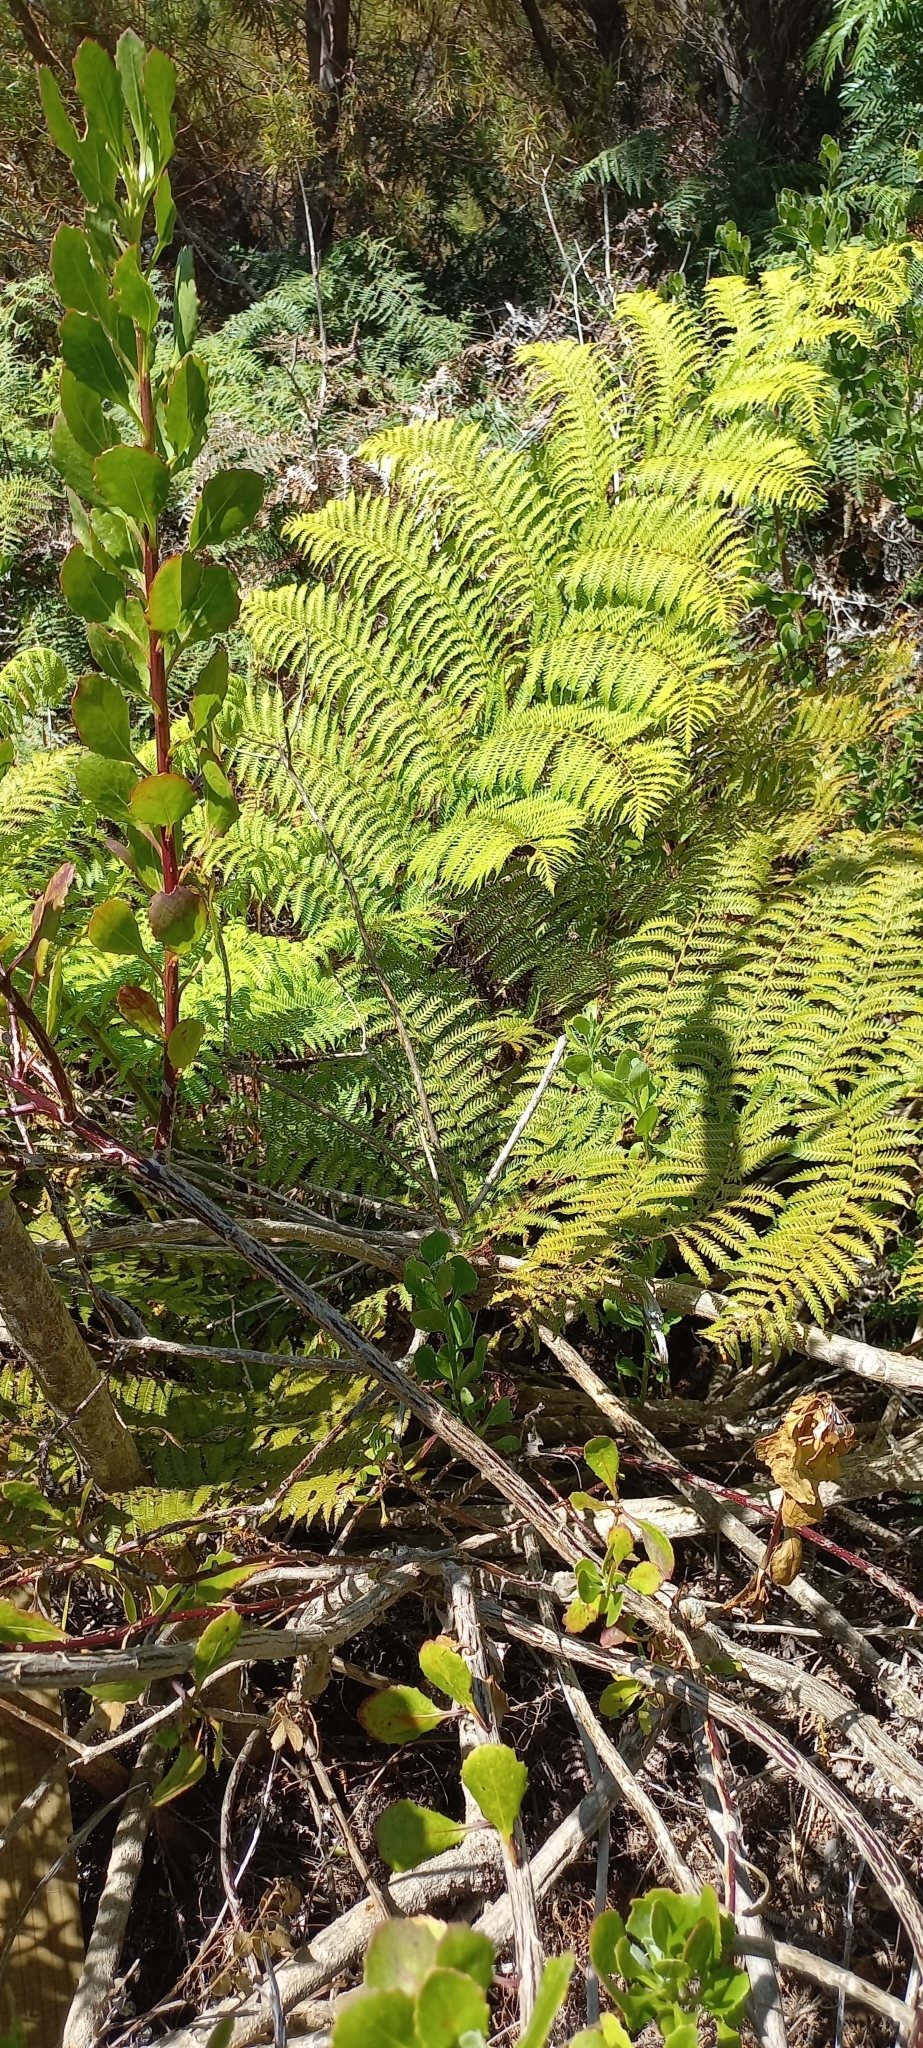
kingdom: Plantae
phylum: Tracheophyta
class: Polypodiopsida
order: Cyatheales
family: Cyatheaceae
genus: Sphaeropteris
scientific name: Sphaeropteris cooperi
